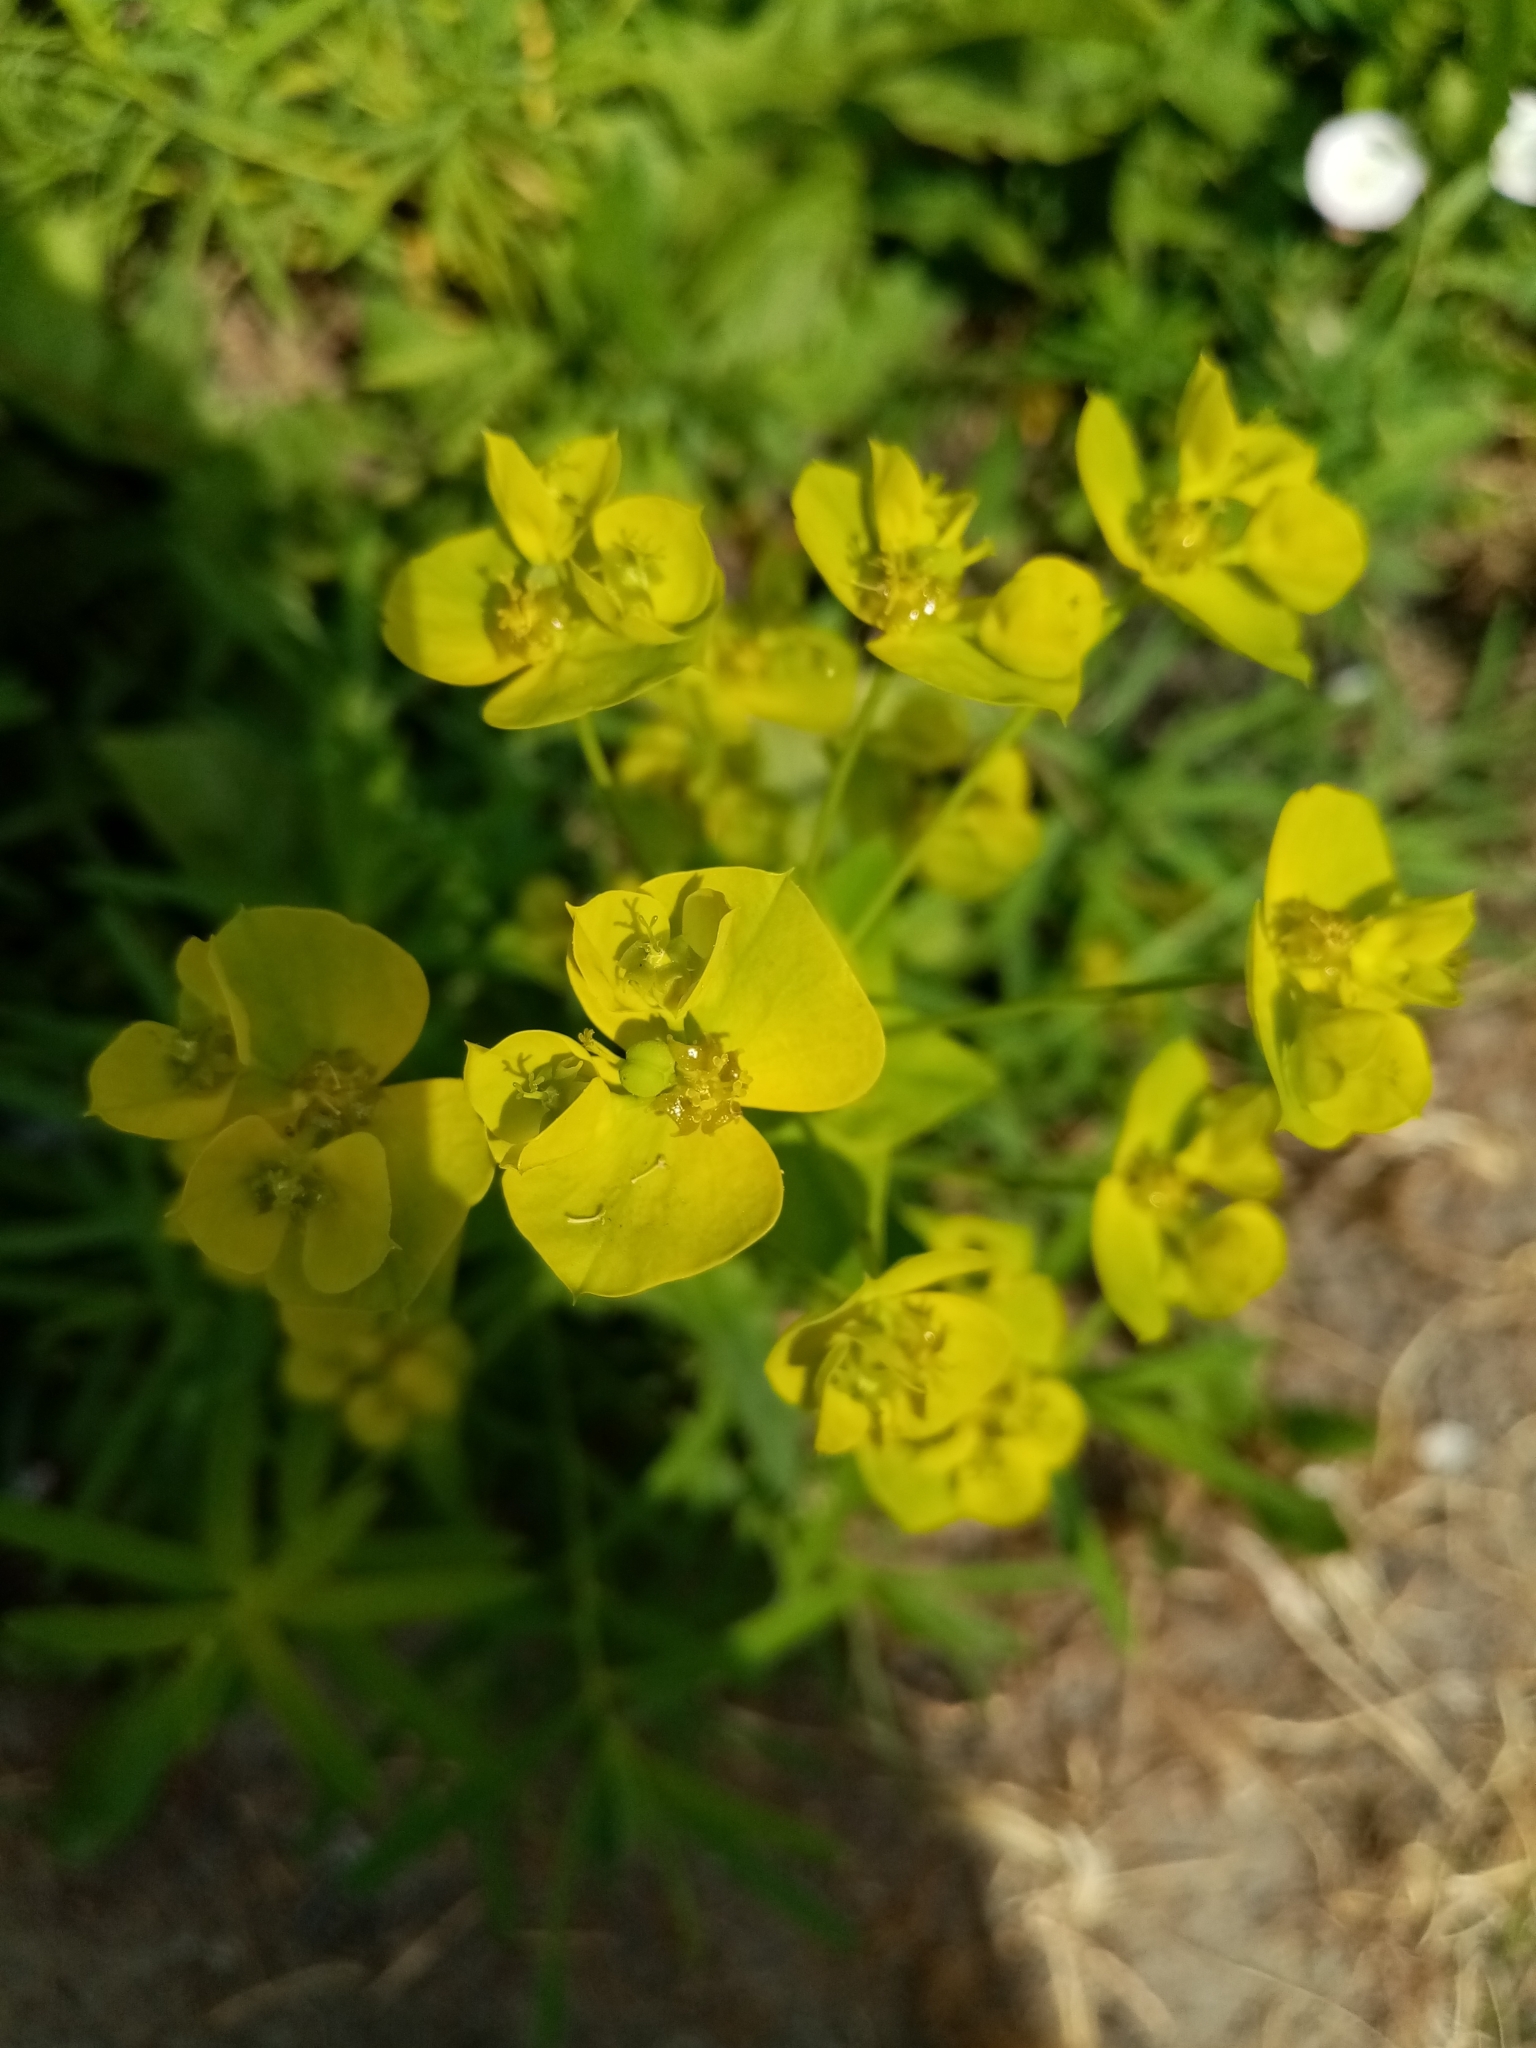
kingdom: Plantae
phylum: Tracheophyta
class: Magnoliopsida
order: Malpighiales
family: Euphorbiaceae
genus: Euphorbia
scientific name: Euphorbia virgata
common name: Leafy spurge
